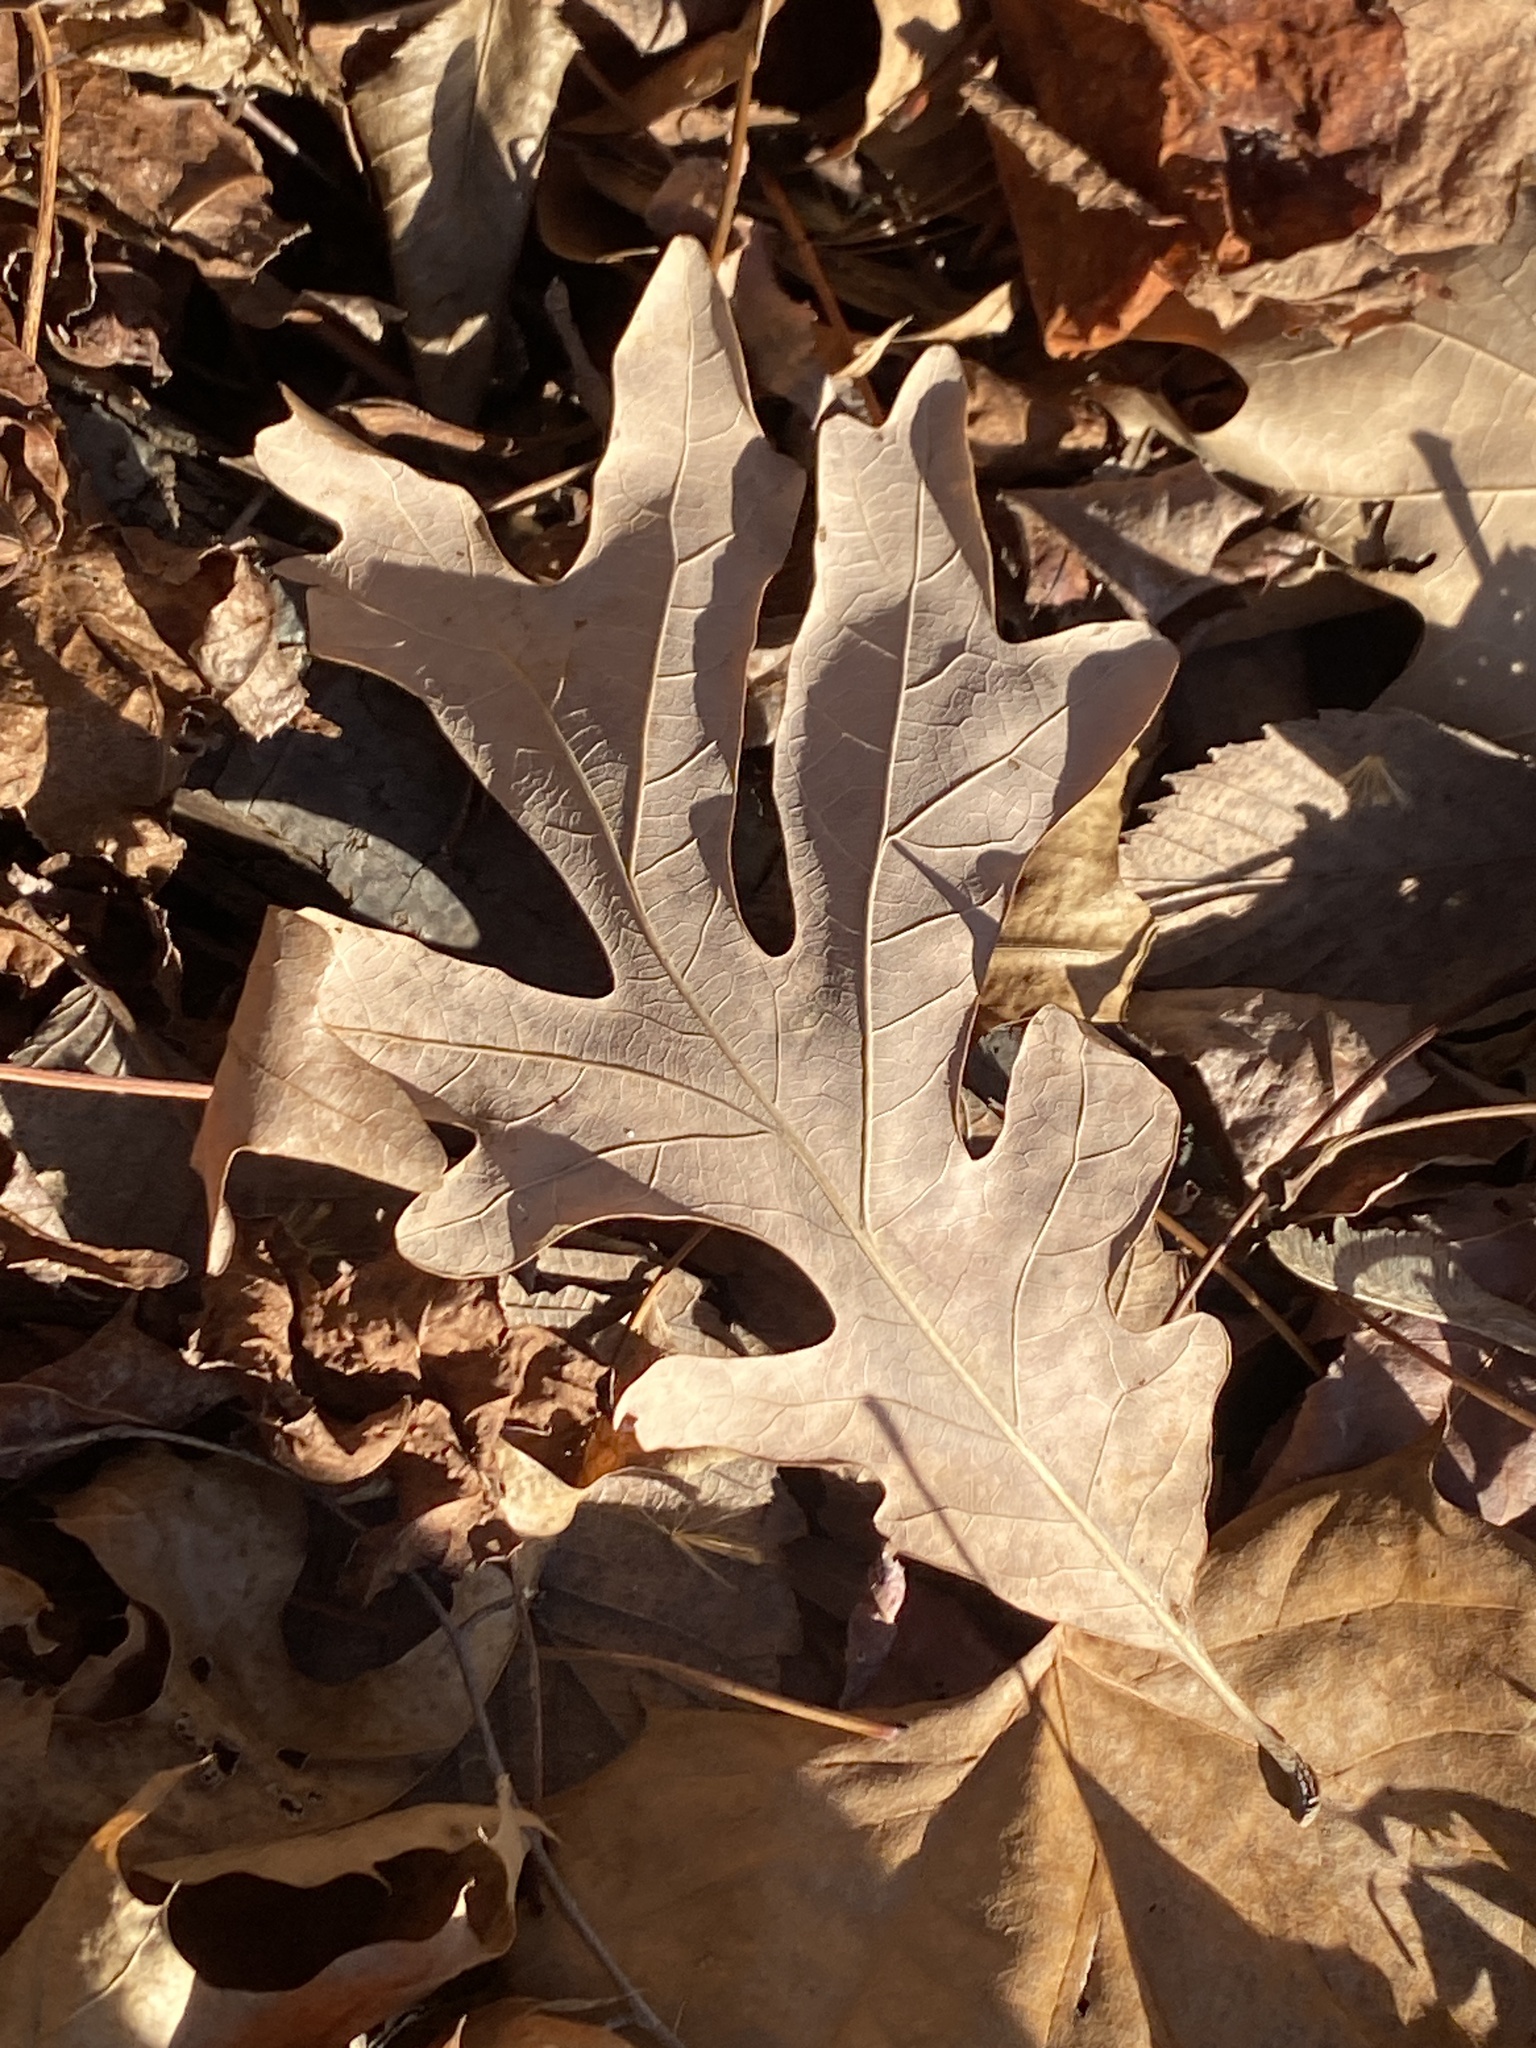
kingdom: Plantae
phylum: Tracheophyta
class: Magnoliopsida
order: Fagales
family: Fagaceae
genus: Quercus
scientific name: Quercus alba
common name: White oak
